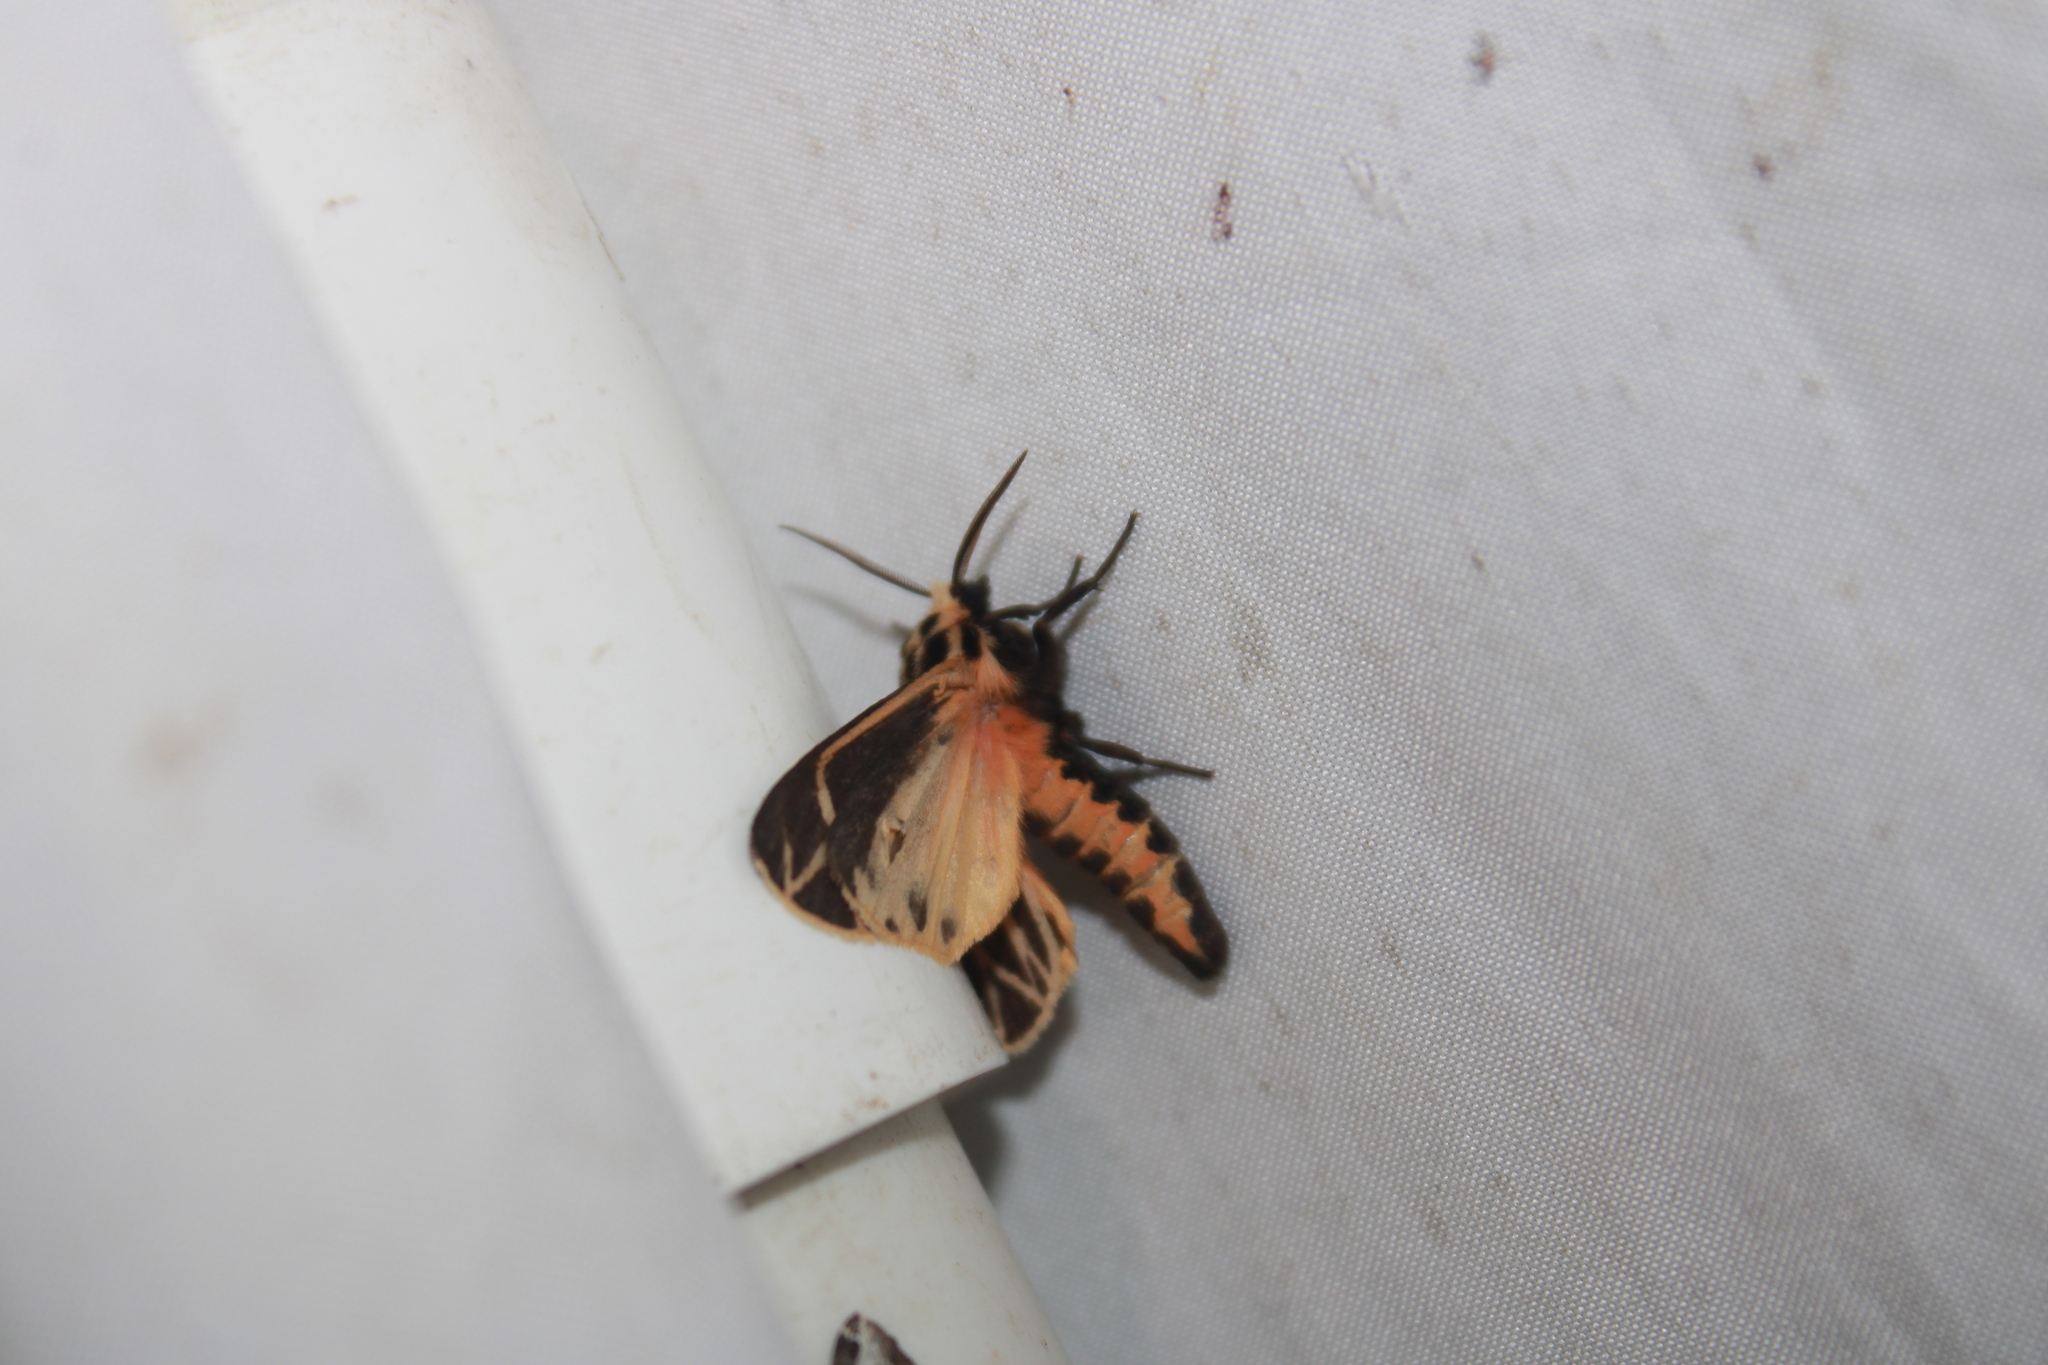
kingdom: Animalia
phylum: Arthropoda
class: Insecta
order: Lepidoptera
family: Erebidae
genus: Apantesis
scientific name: Apantesis phalerata
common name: Harnessed tiger moth
